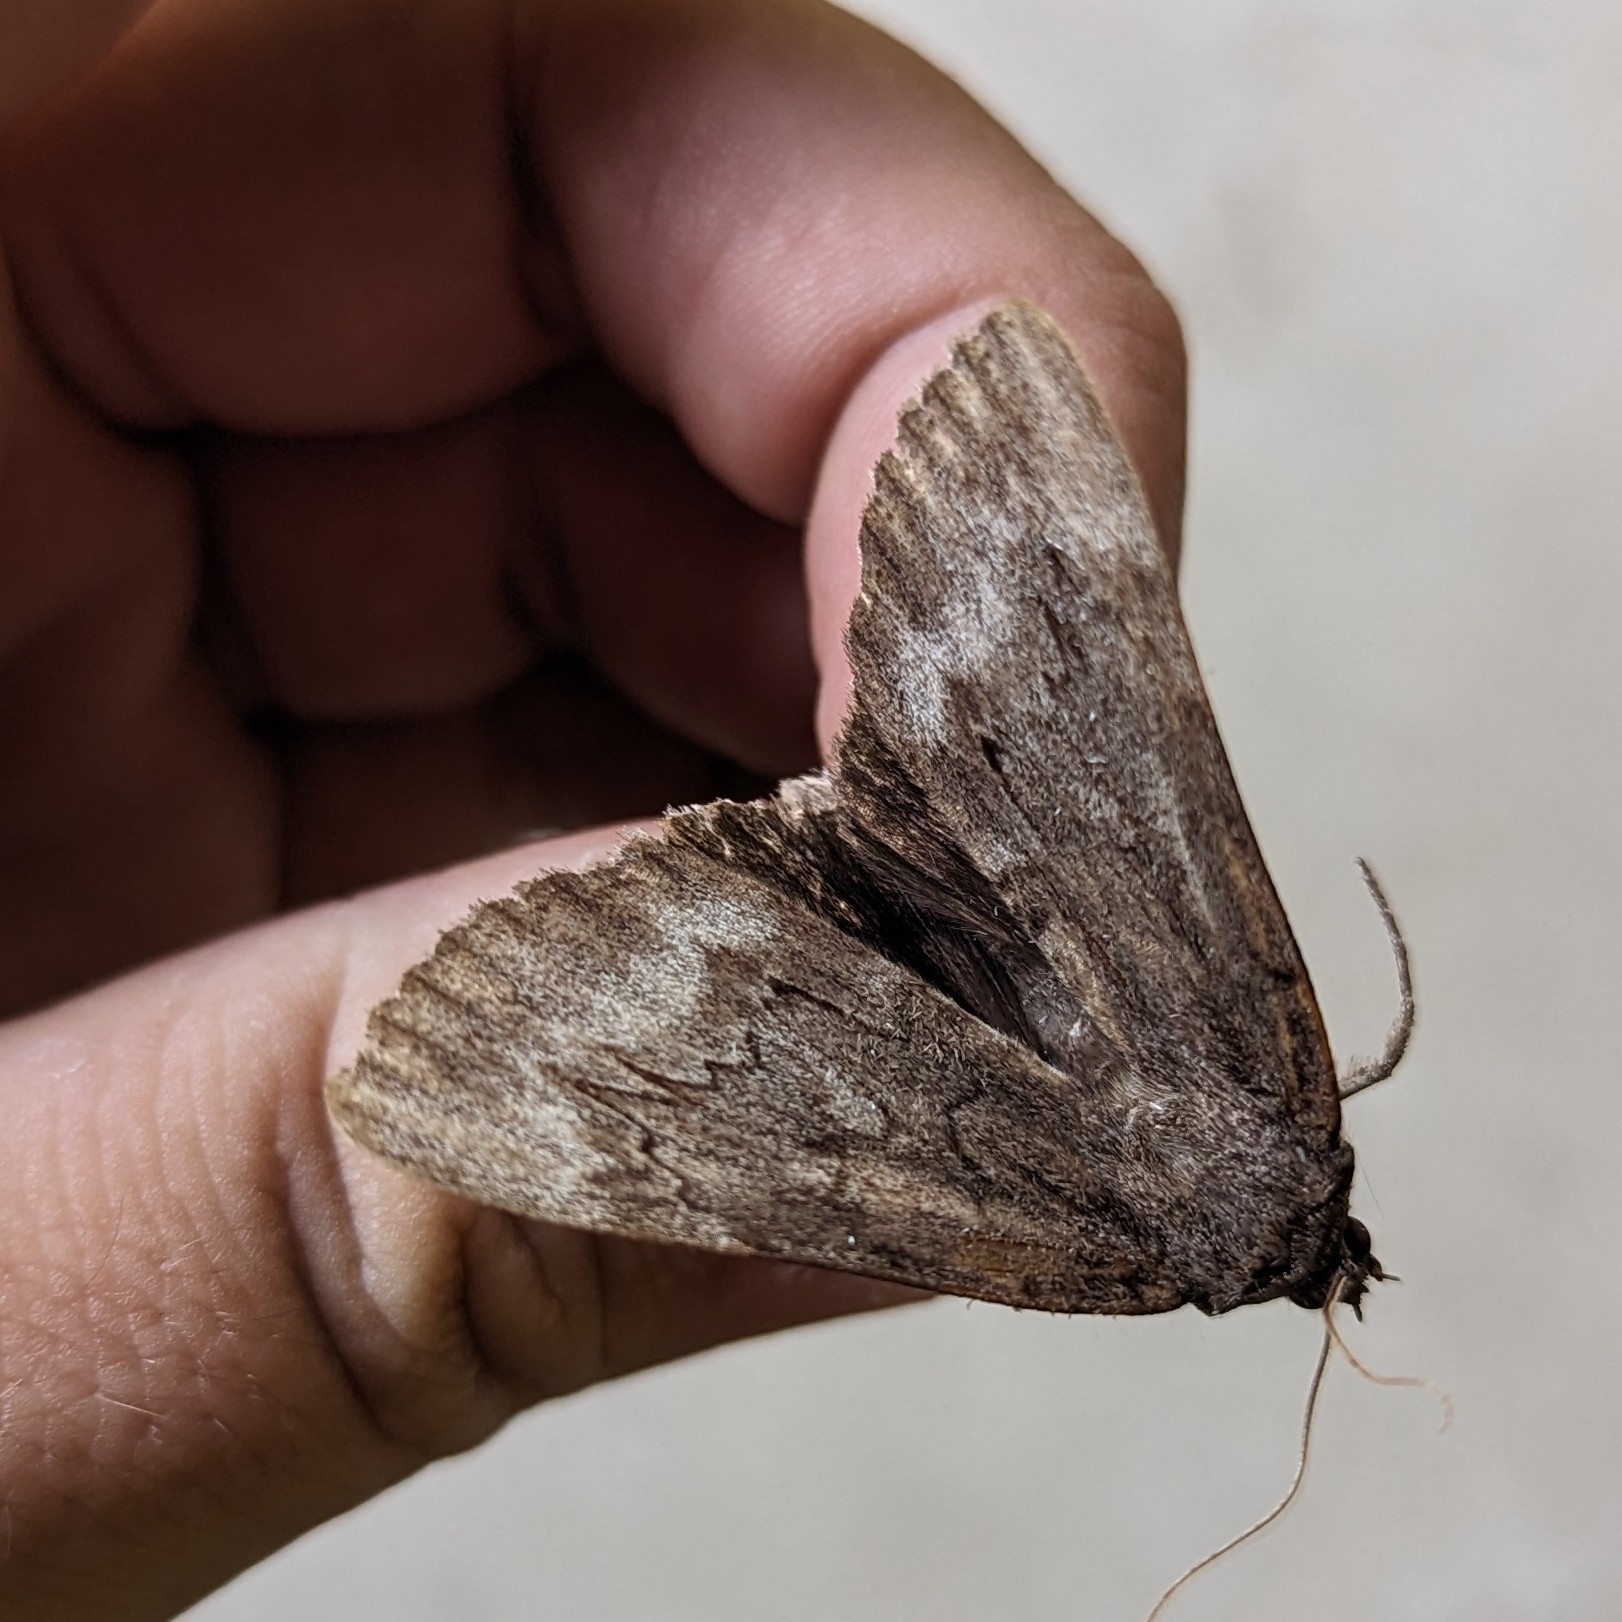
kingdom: Animalia
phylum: Arthropoda
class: Insecta
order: Lepidoptera
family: Erebidae
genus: Catocala
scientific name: Catocala residua
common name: Residua underwing
